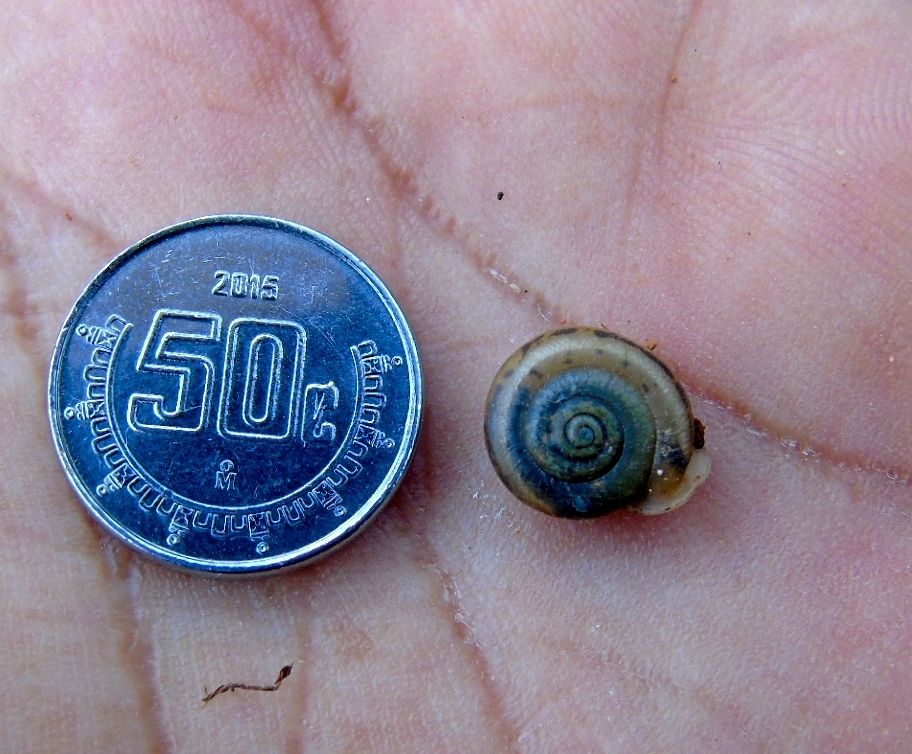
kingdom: Animalia
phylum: Mollusca
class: Gastropoda
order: Stylommatophora
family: Polygyridae
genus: Linisa
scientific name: Linisa
